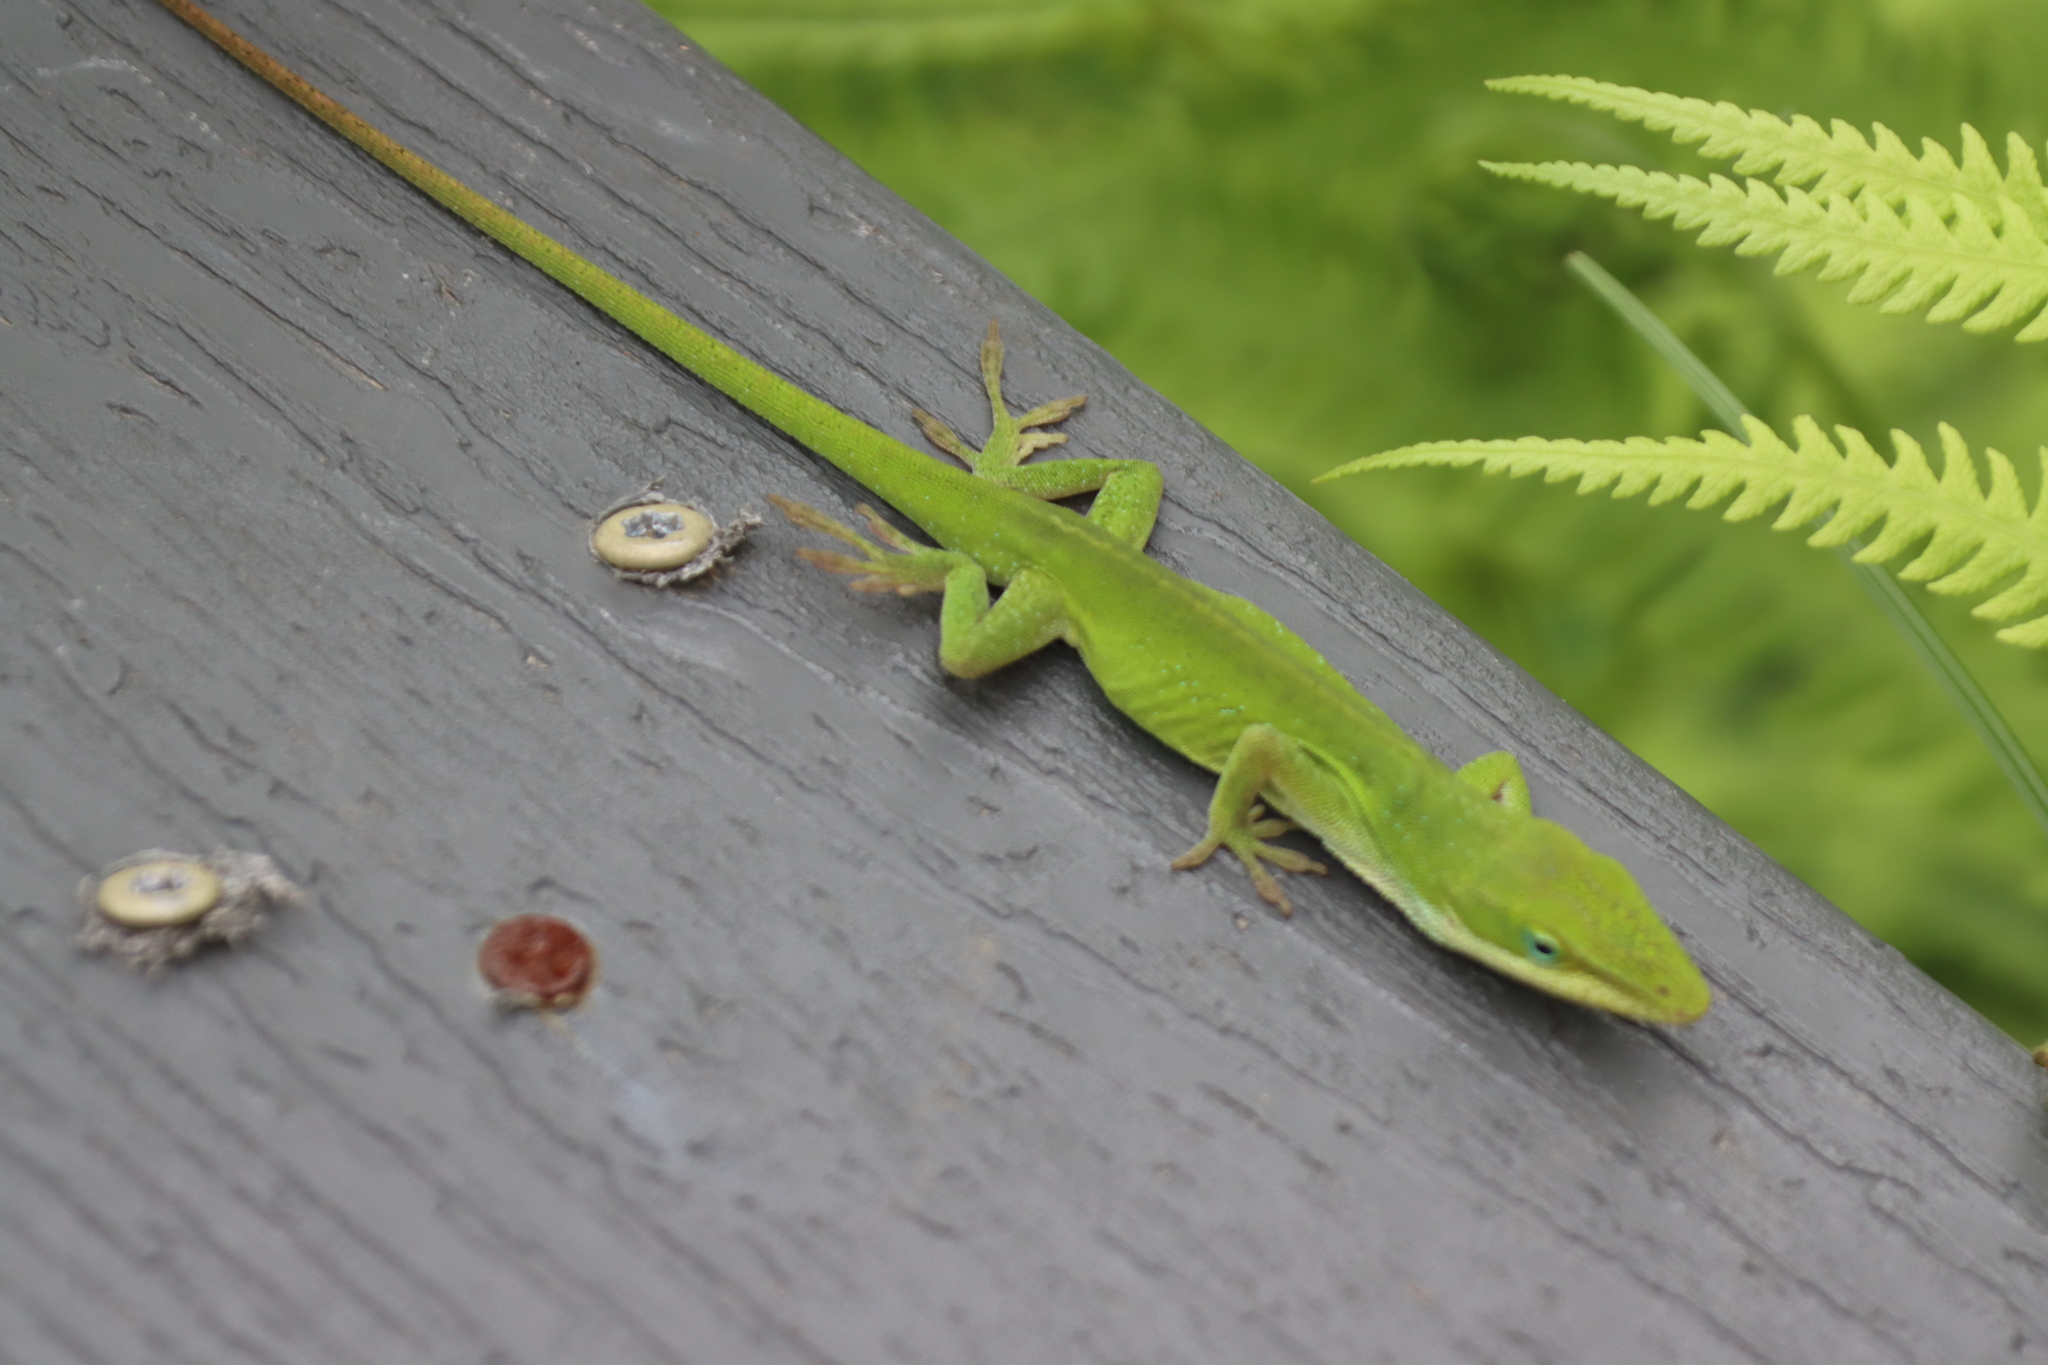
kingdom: Animalia
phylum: Chordata
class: Squamata
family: Dactyloidae
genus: Anolis
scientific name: Anolis carolinensis
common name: Green anole
